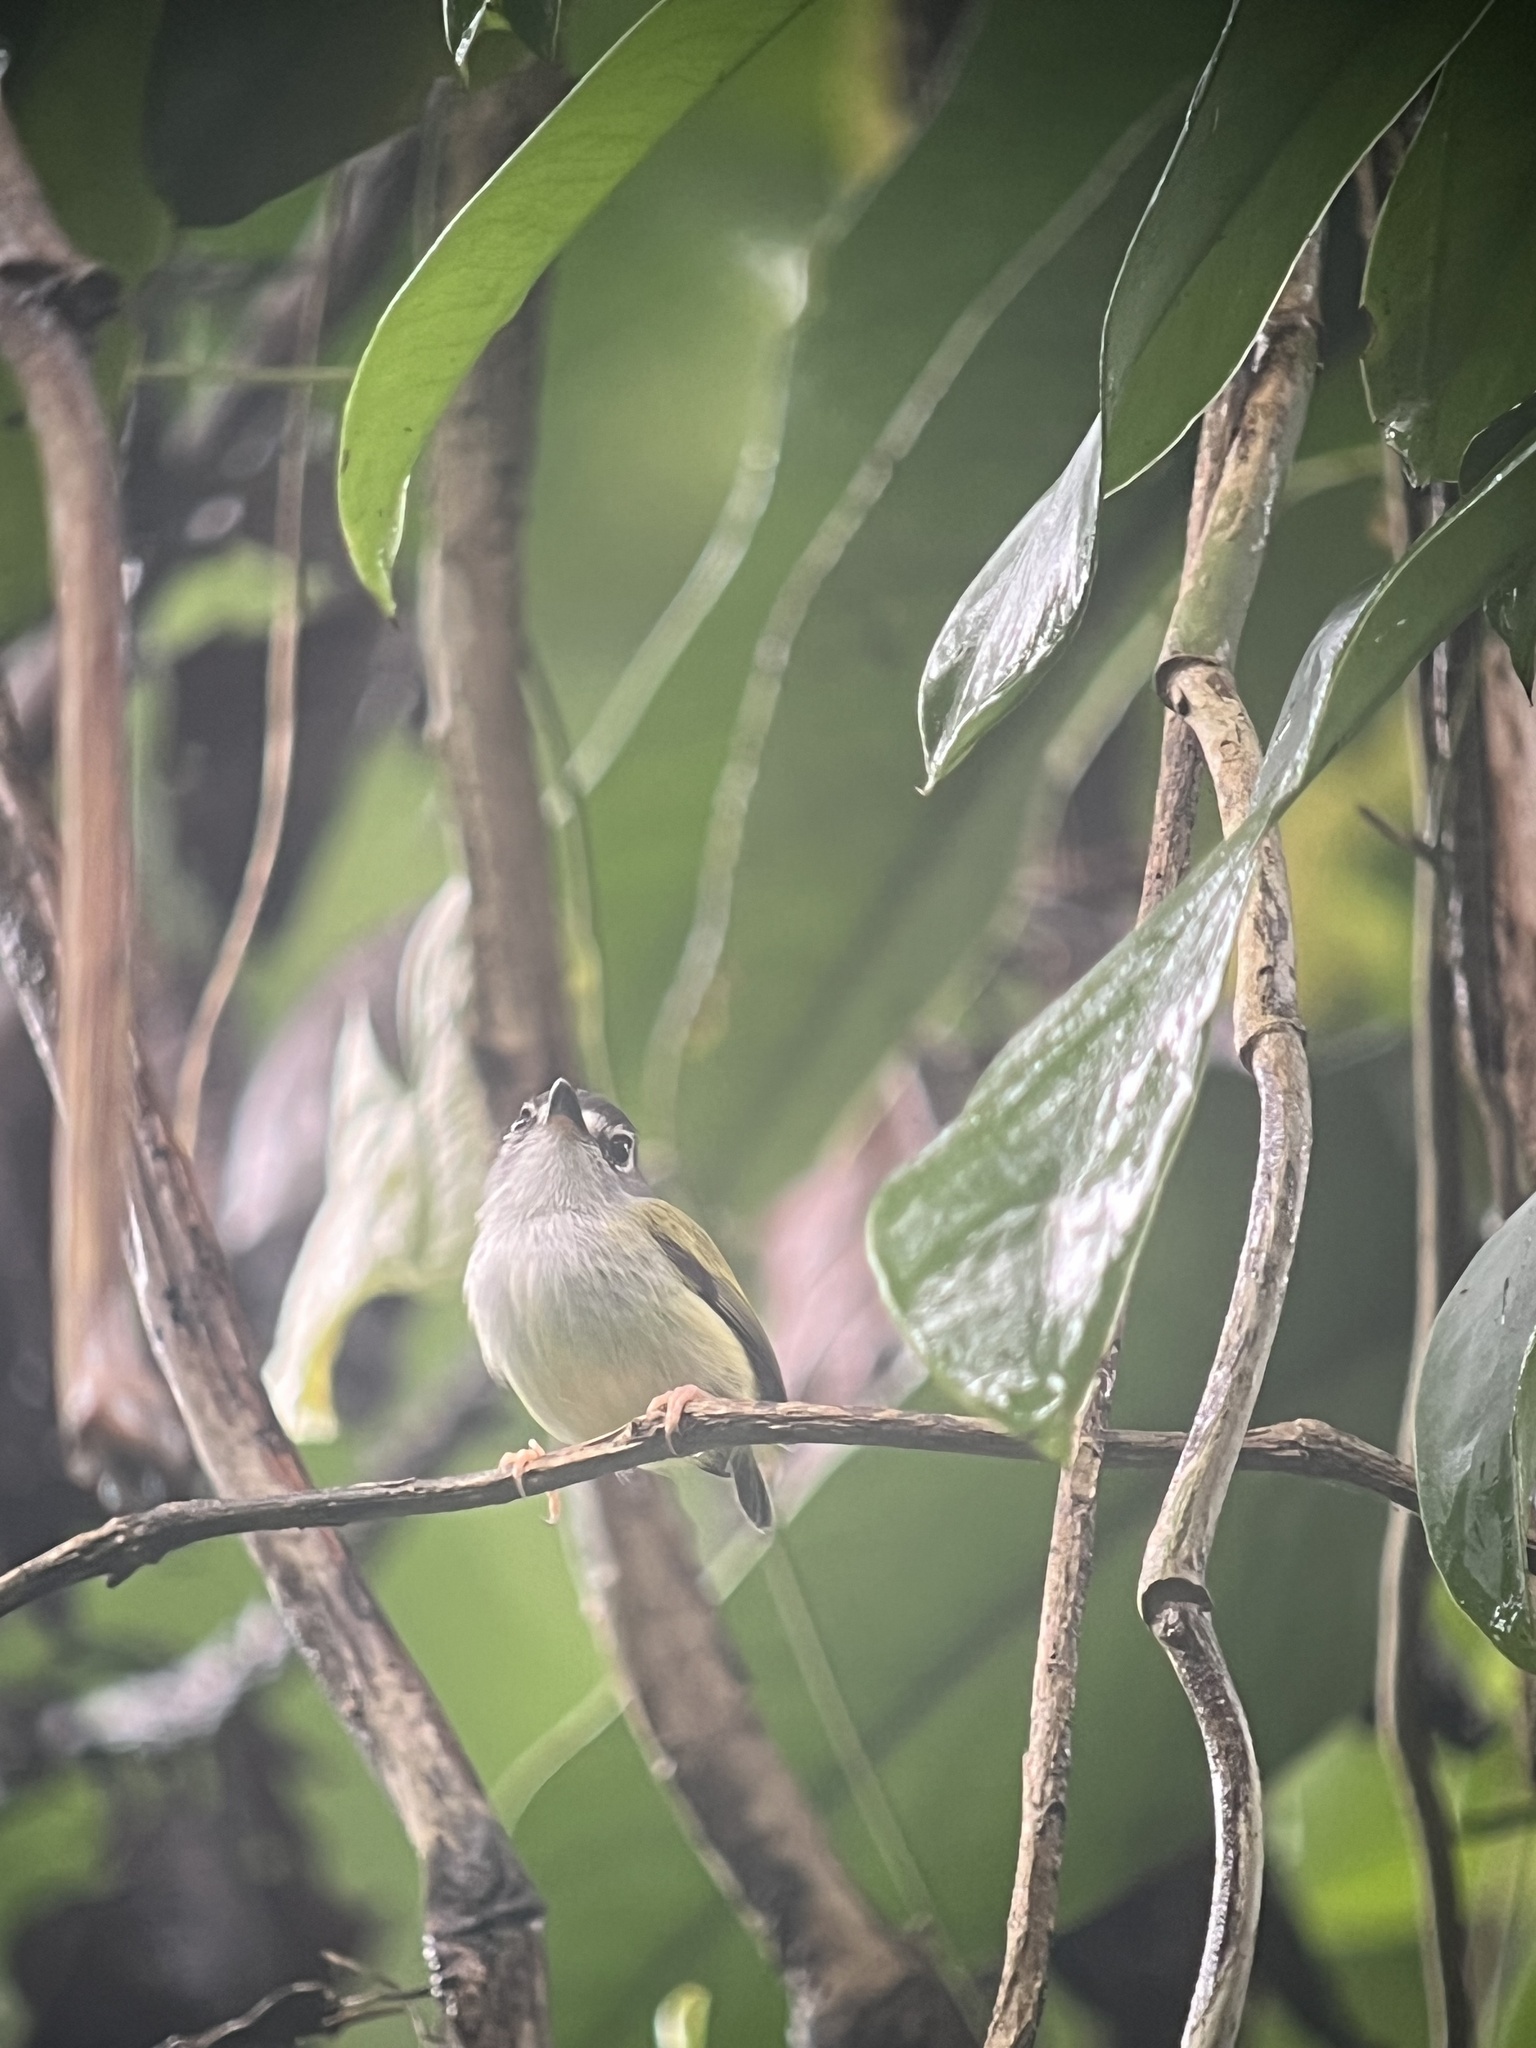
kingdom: Animalia
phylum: Chordata
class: Aves
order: Passeriformes
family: Tyrannidae
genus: Myiornis
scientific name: Myiornis atricapillus
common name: Black-capped pygmy-tyrant
